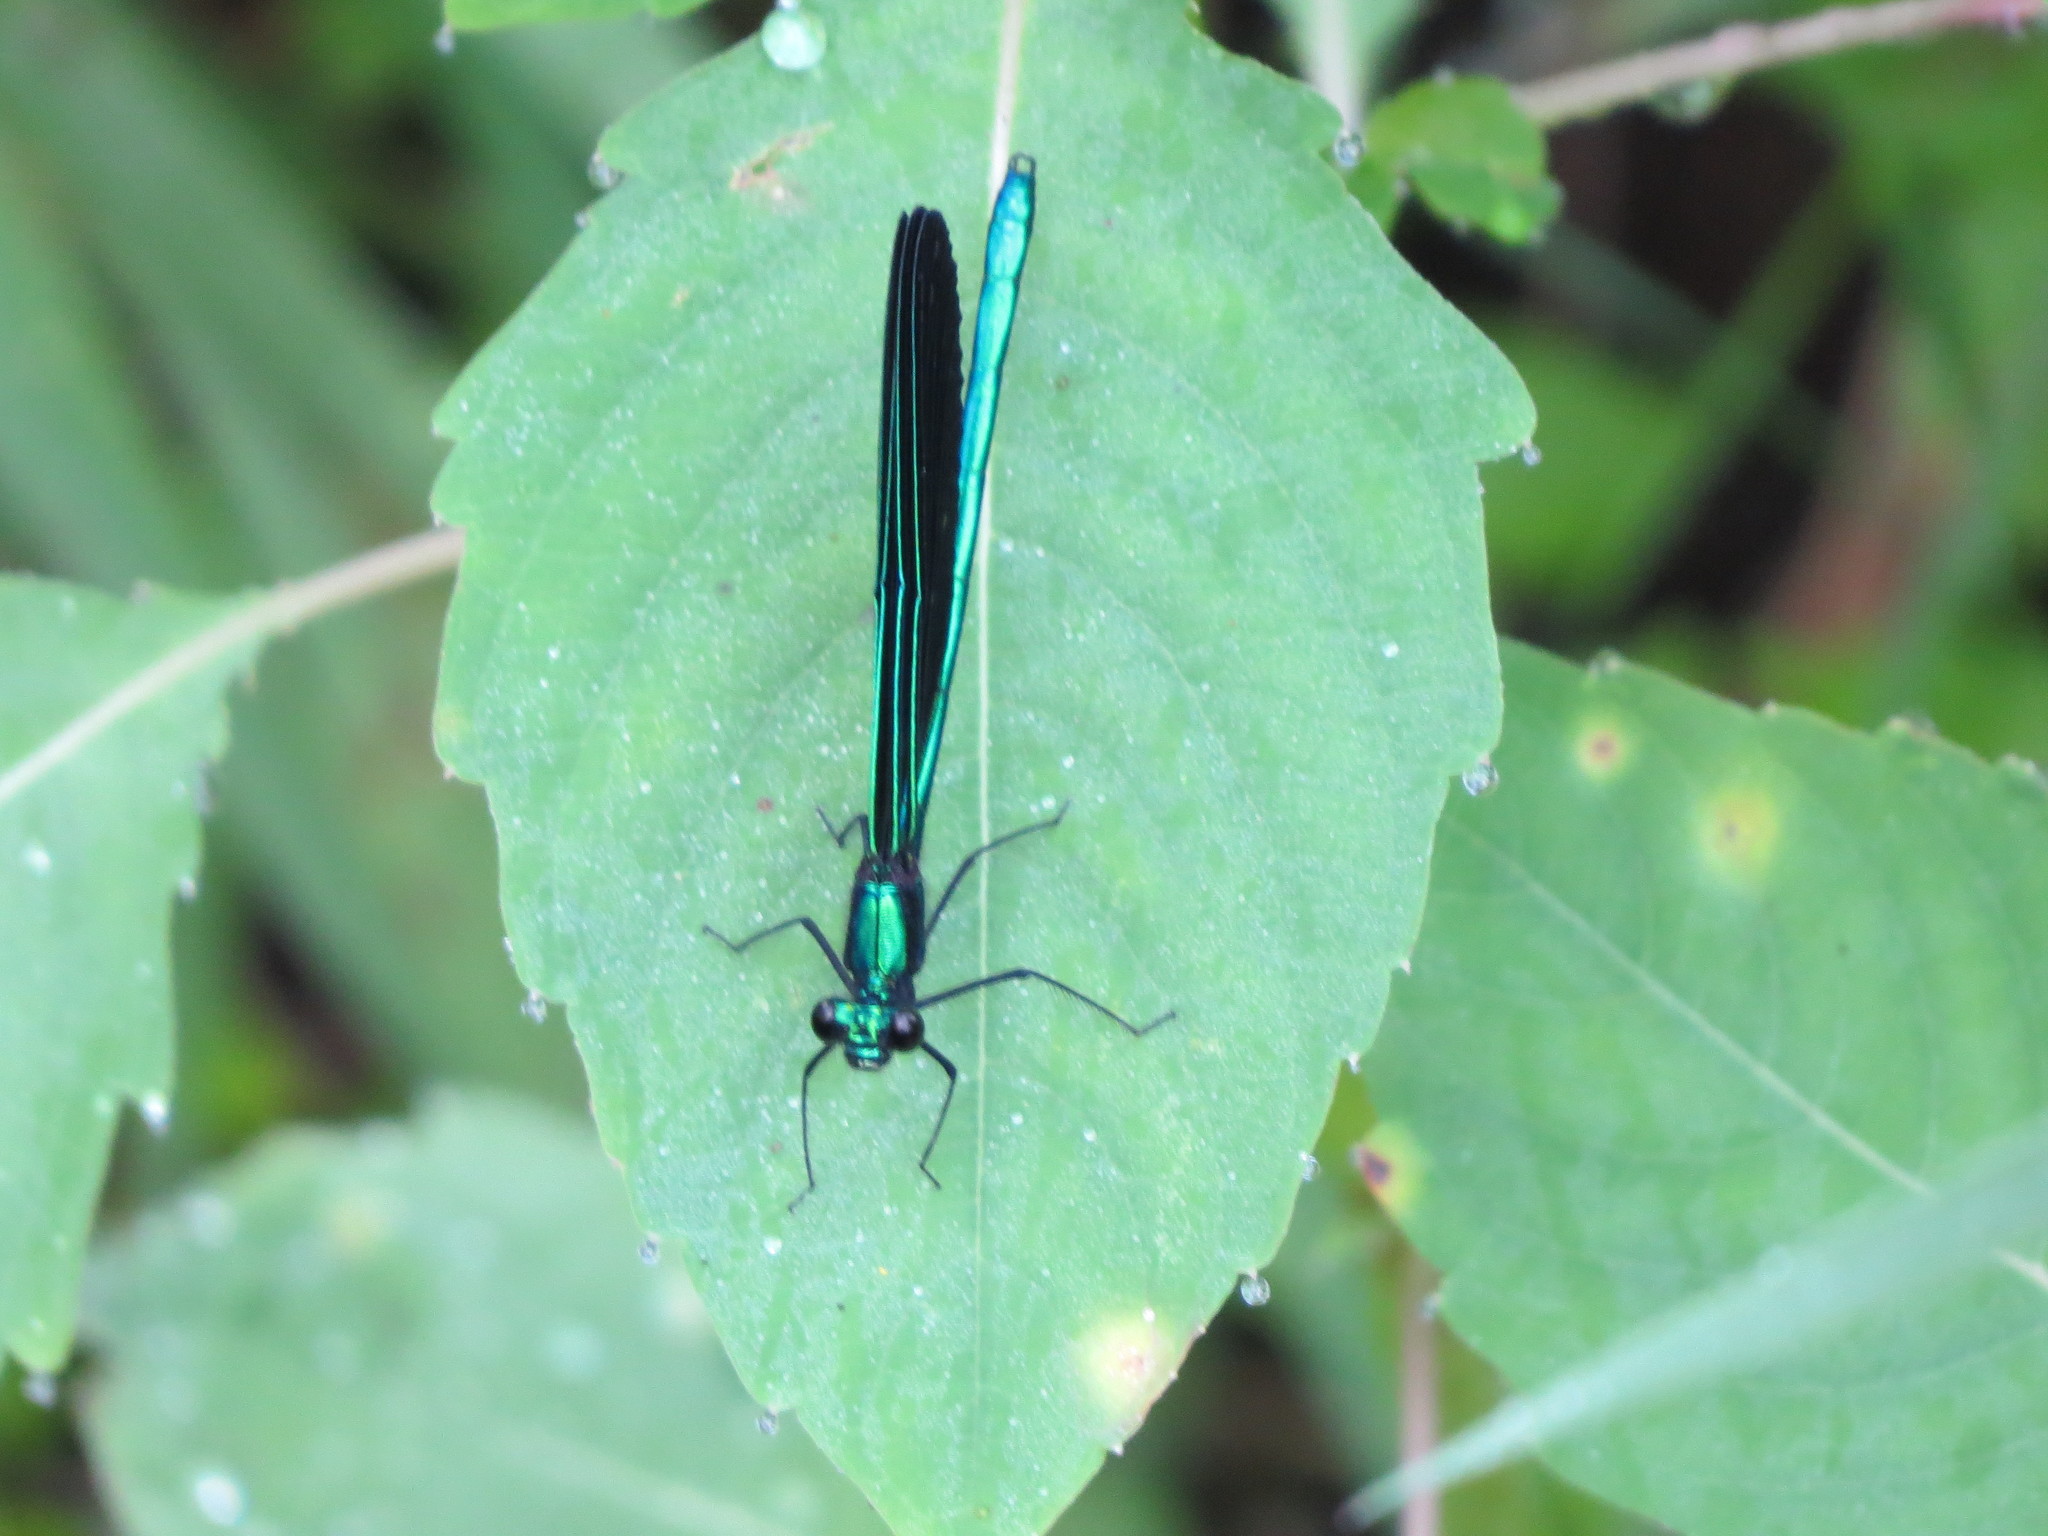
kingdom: Animalia
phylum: Arthropoda
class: Insecta
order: Odonata
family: Calopterygidae
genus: Calopteryx
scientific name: Calopteryx maculata
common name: Ebony jewelwing
